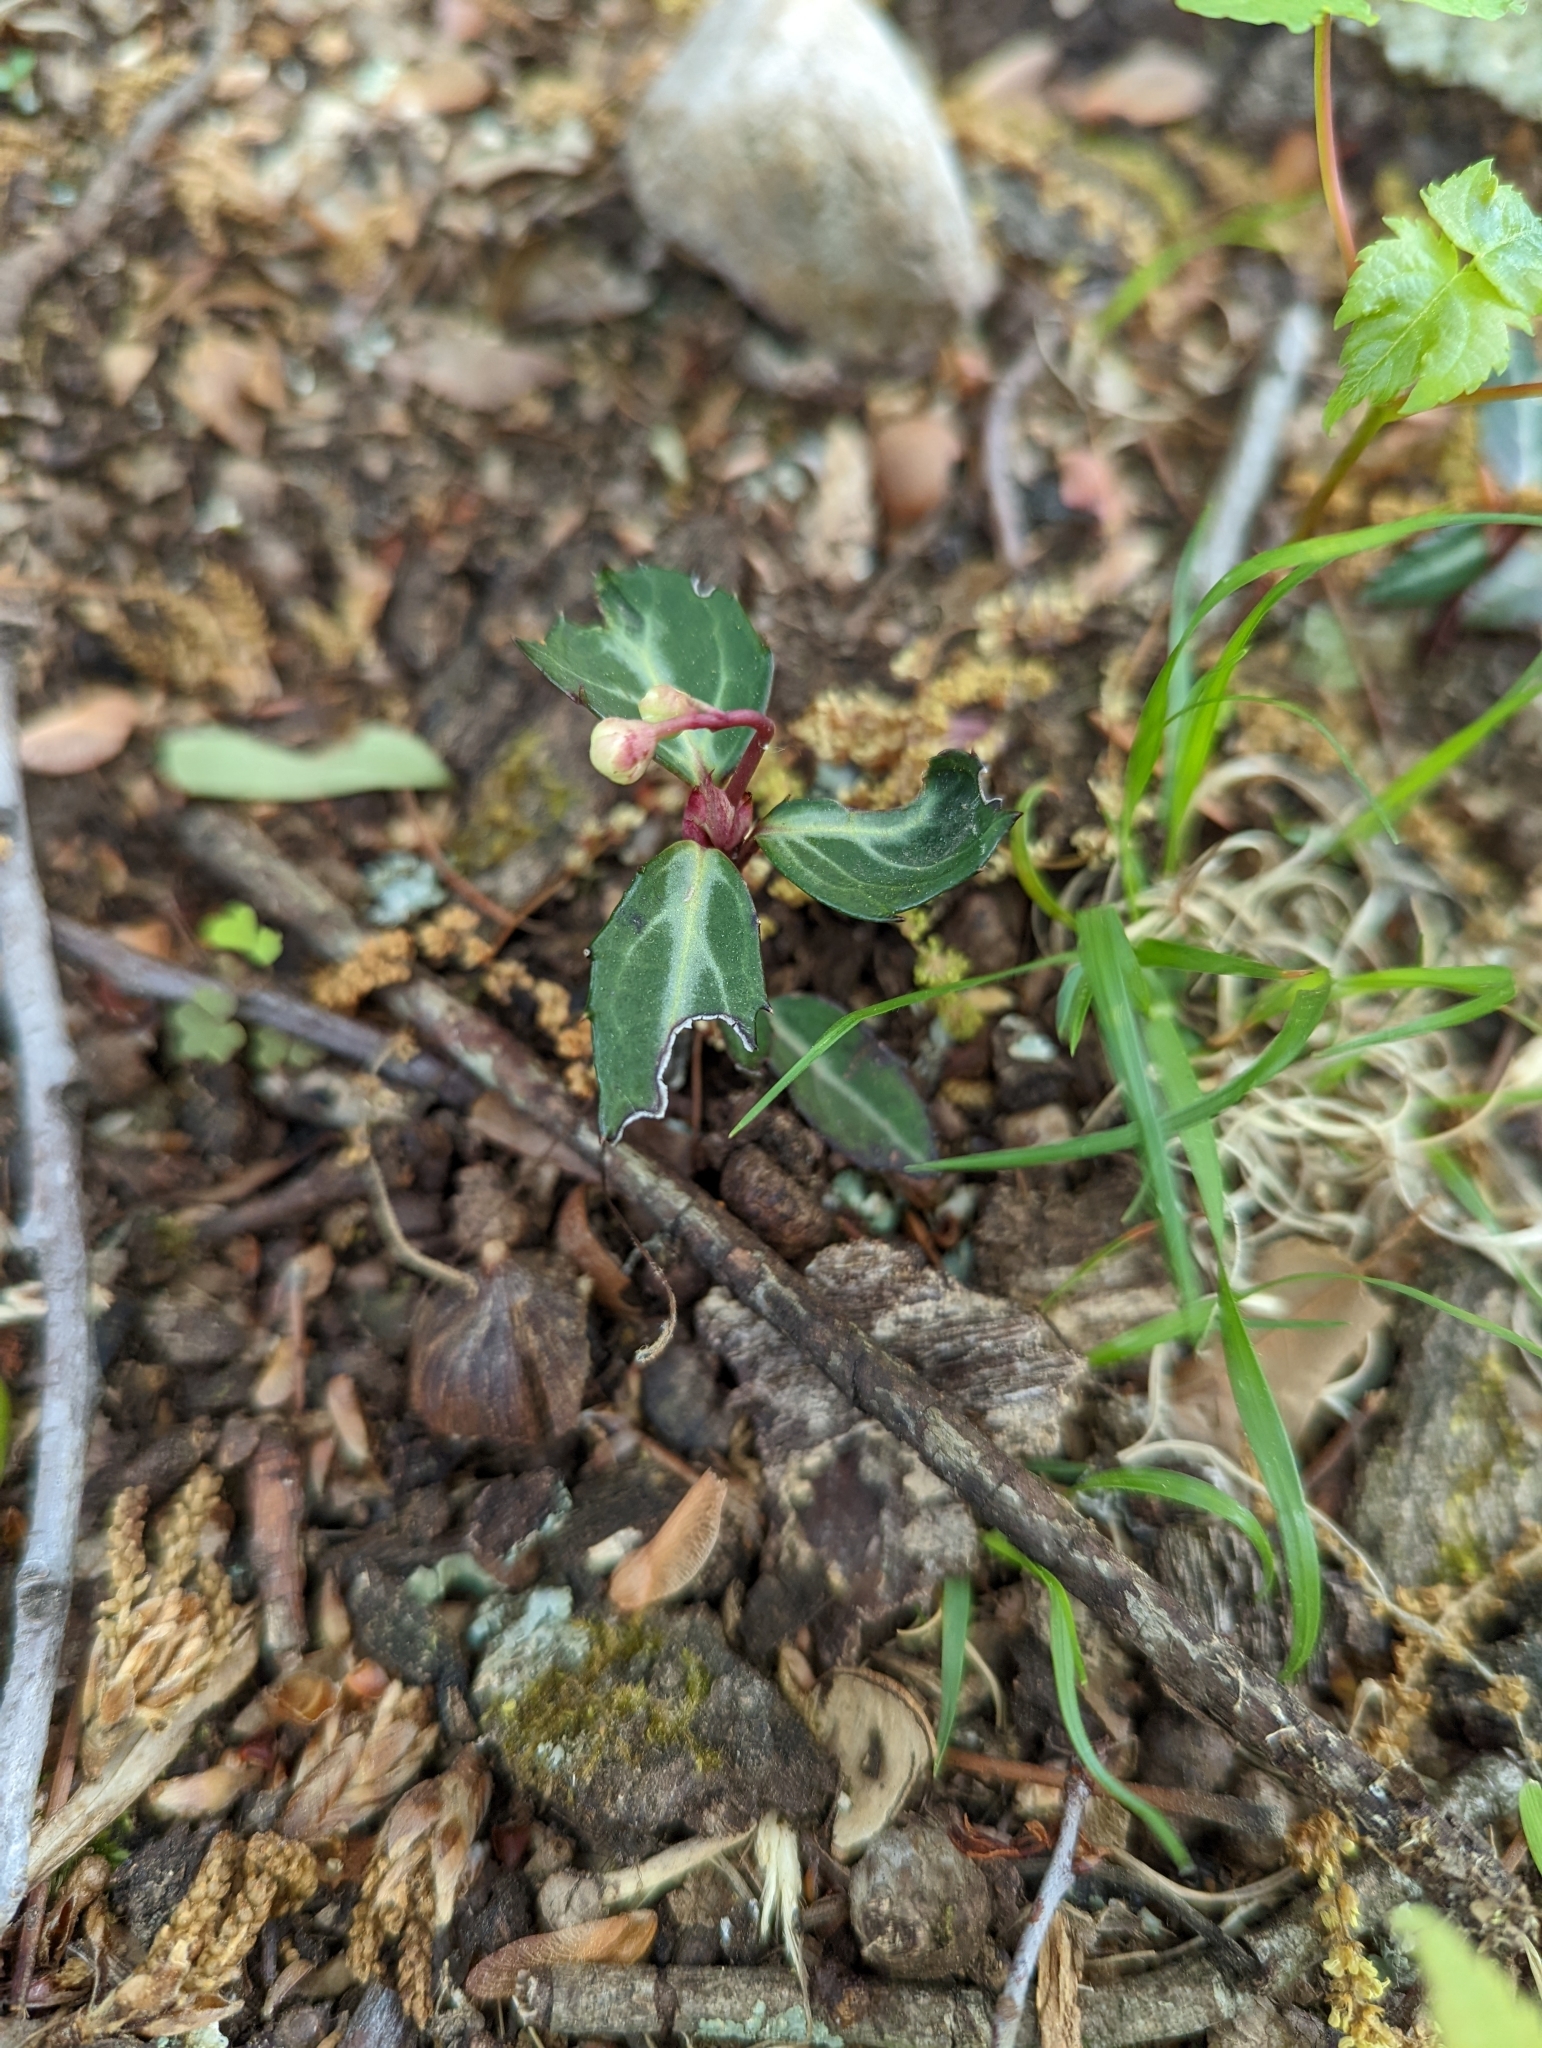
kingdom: Plantae
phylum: Tracheophyta
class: Magnoliopsida
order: Ericales
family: Ericaceae
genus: Chimaphila
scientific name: Chimaphila maculata
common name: Spotted pipsissewa
